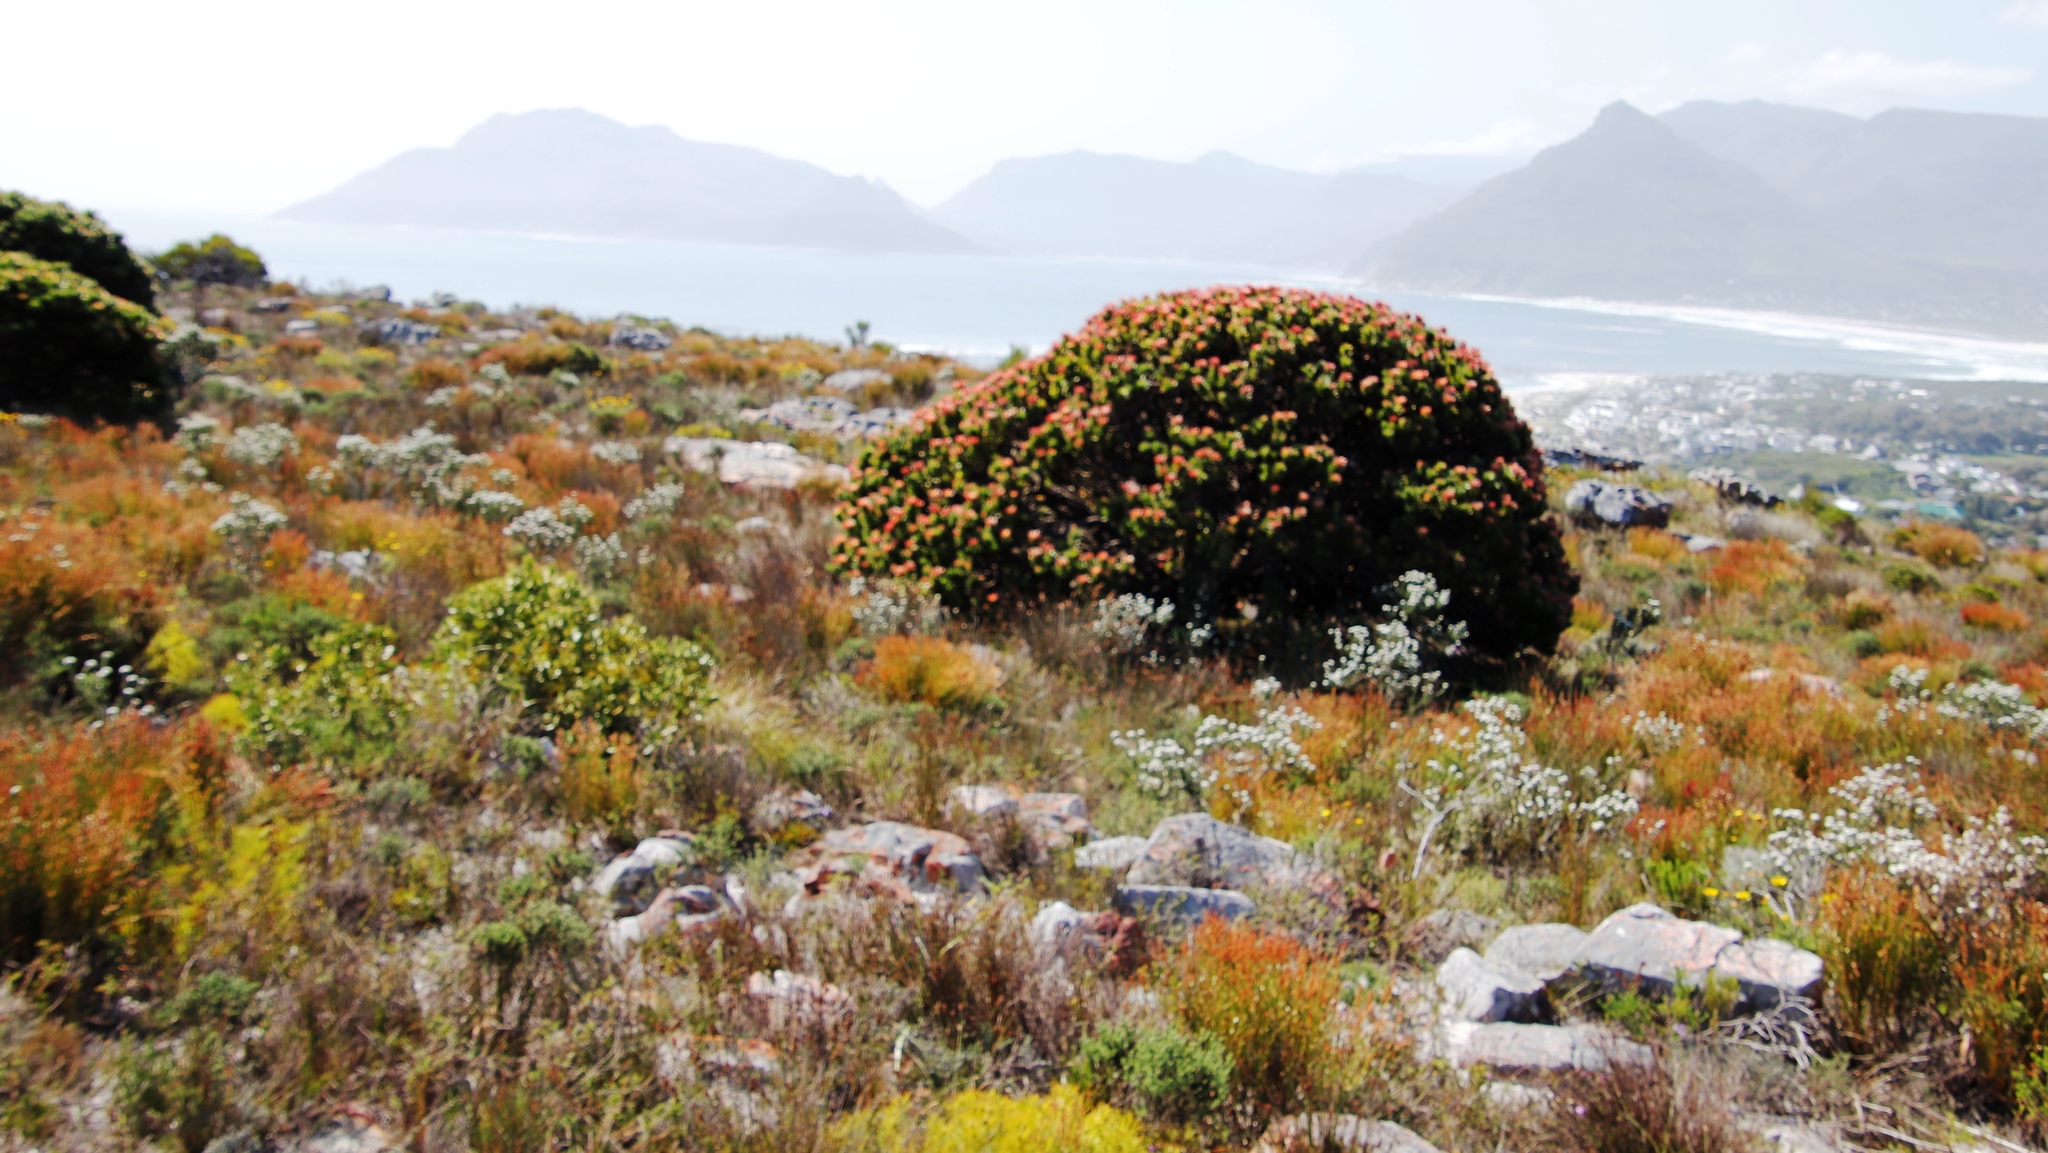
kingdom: Plantae
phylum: Tracheophyta
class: Magnoliopsida
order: Proteales
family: Proteaceae
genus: Mimetes
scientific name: Mimetes fimbriifolius
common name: Fringed bottlebrush
